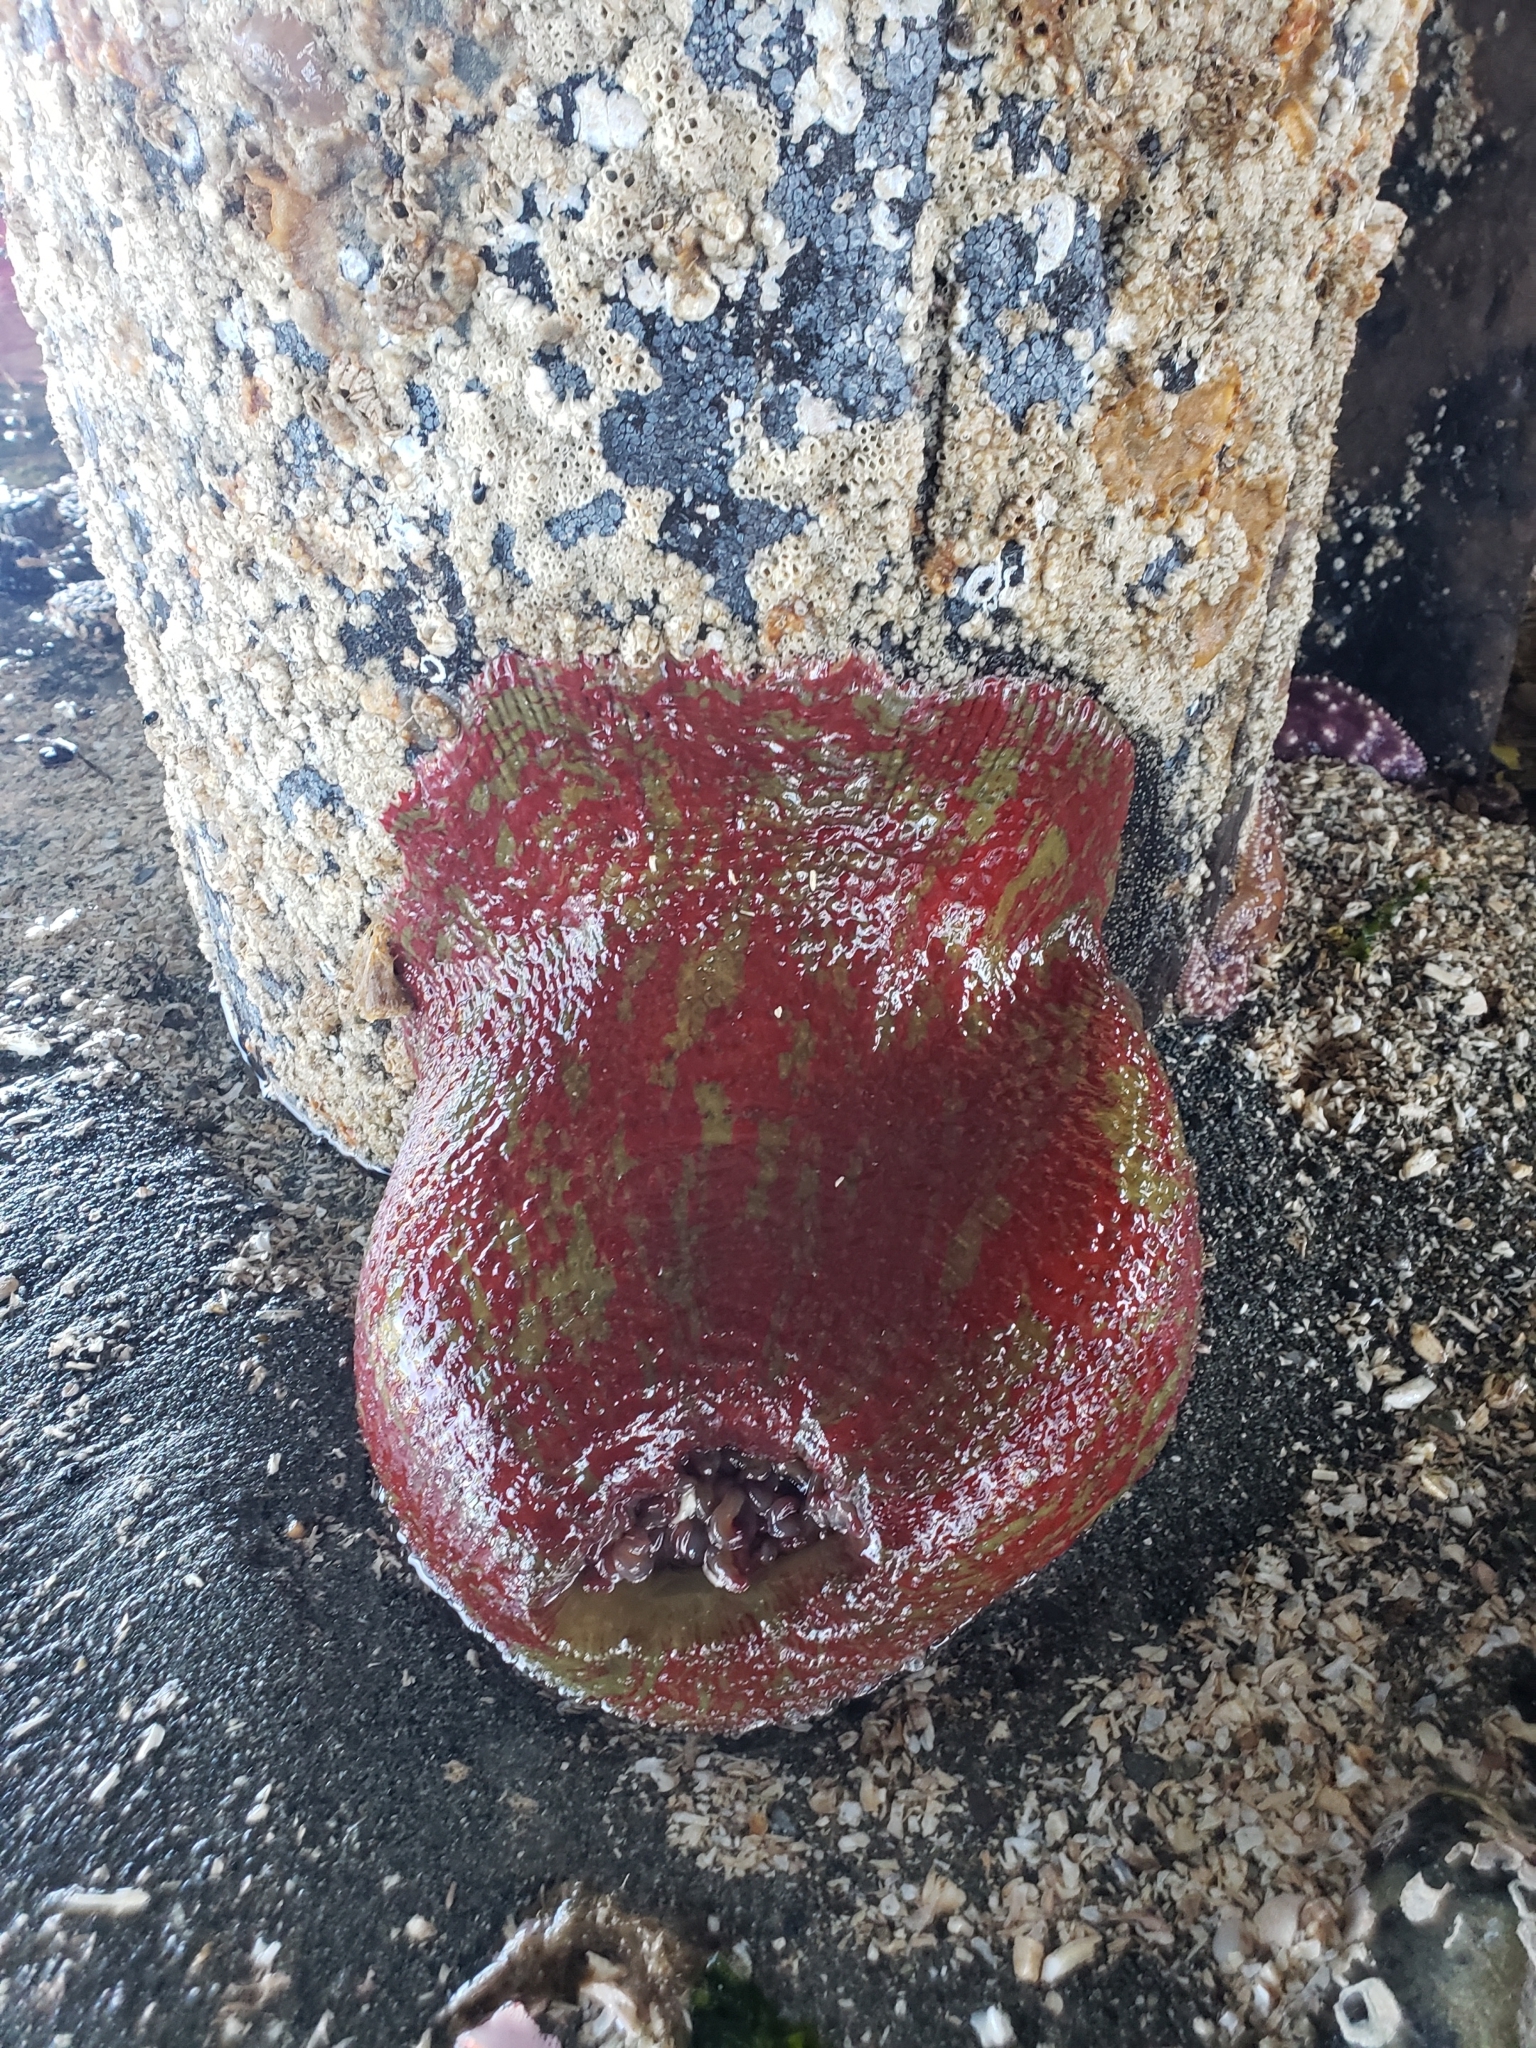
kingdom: Animalia
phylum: Cnidaria
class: Anthozoa
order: Actiniaria
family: Actiniidae
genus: Urticina
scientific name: Urticina grebelnyi
